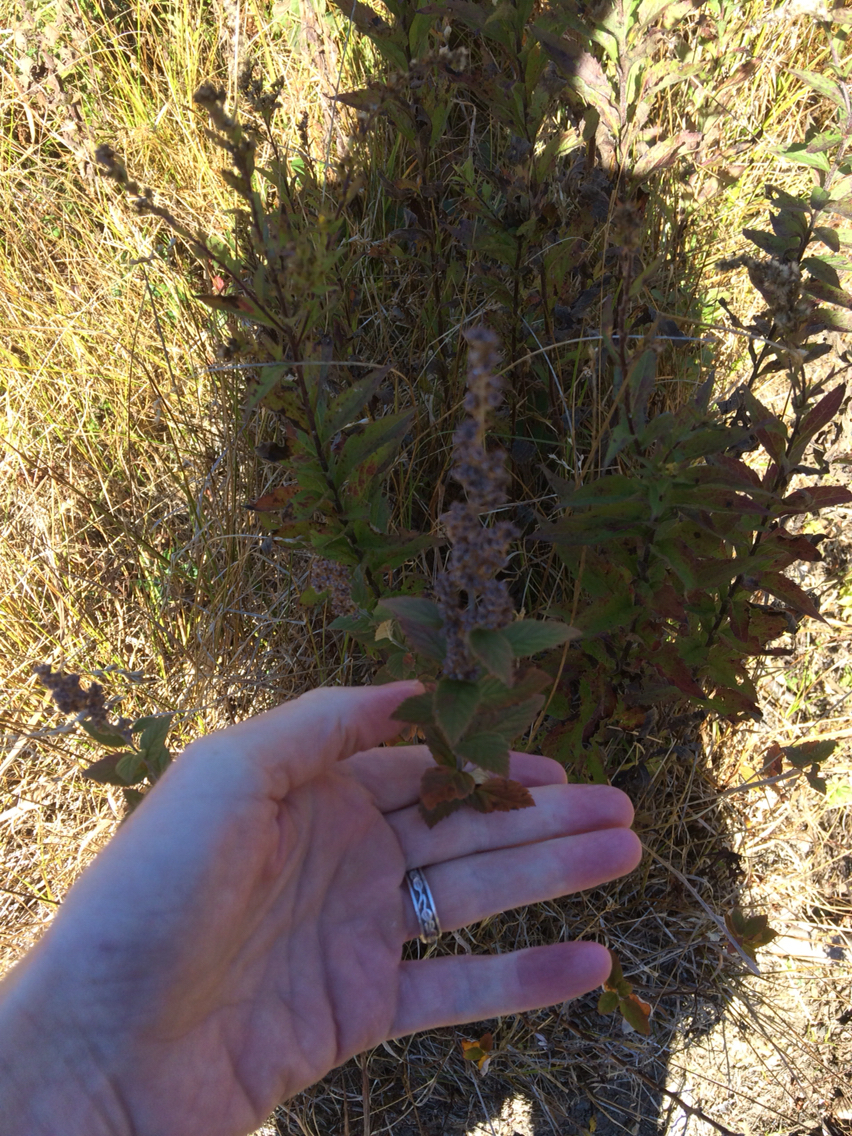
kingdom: Plantae
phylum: Tracheophyta
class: Magnoliopsida
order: Rosales
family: Rosaceae
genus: Spiraea
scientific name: Spiraea tomentosa
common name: Hardhack
